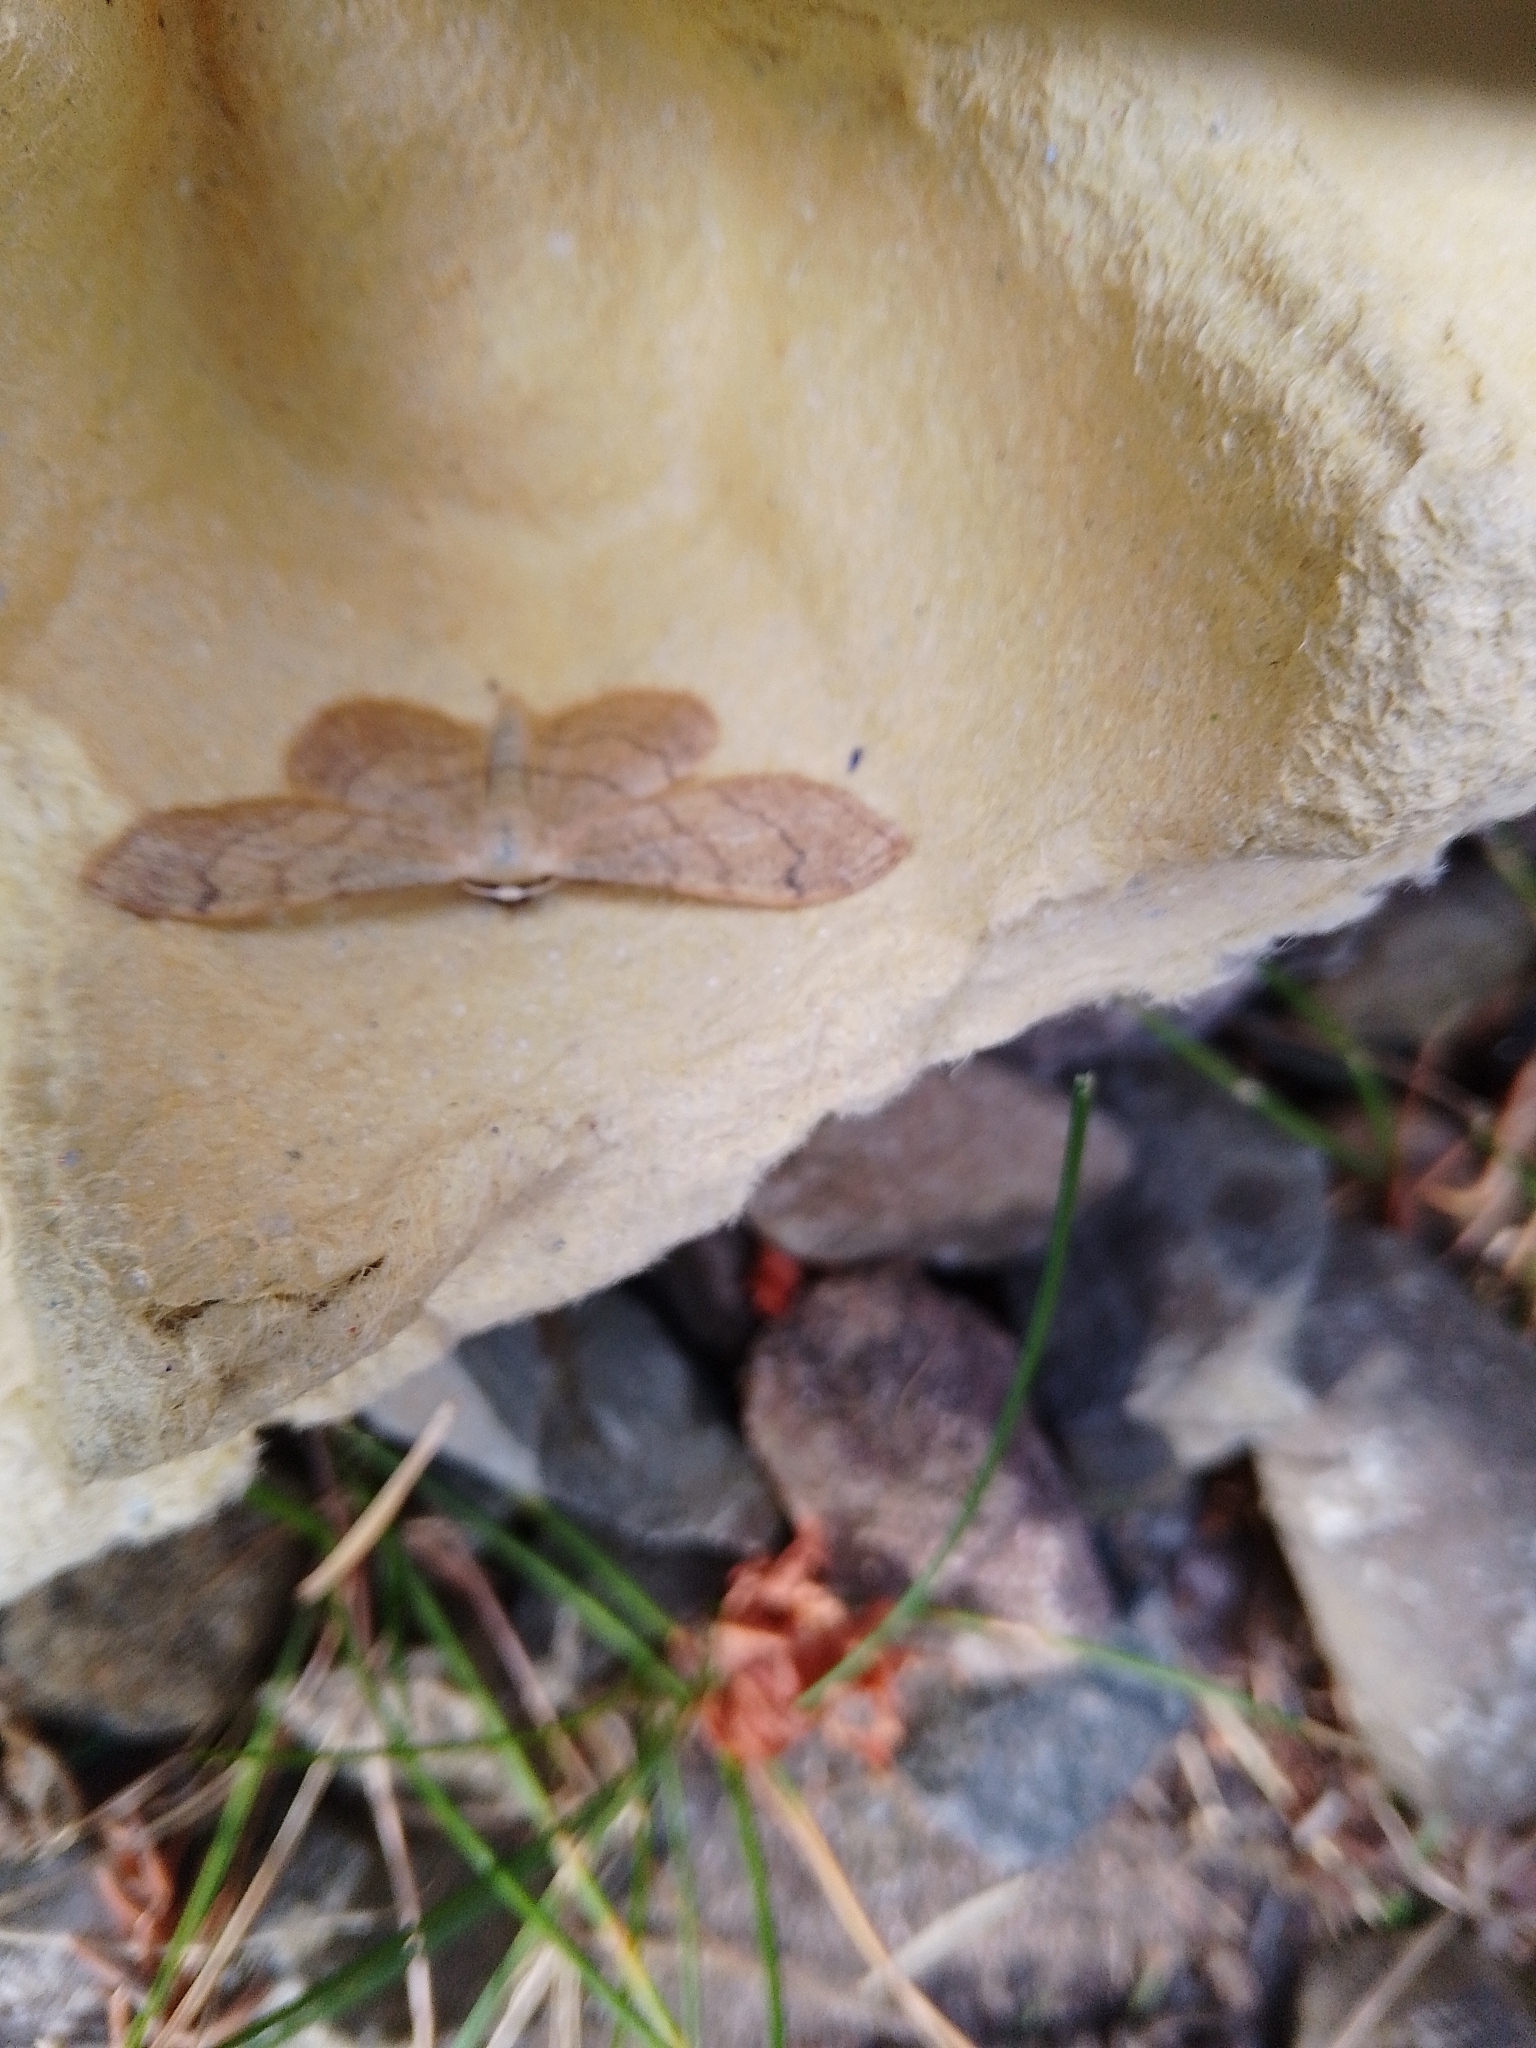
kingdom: Animalia
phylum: Arthropoda
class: Insecta
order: Lepidoptera
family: Geometridae
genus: Idaea
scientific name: Idaea aversata
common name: Riband wave
